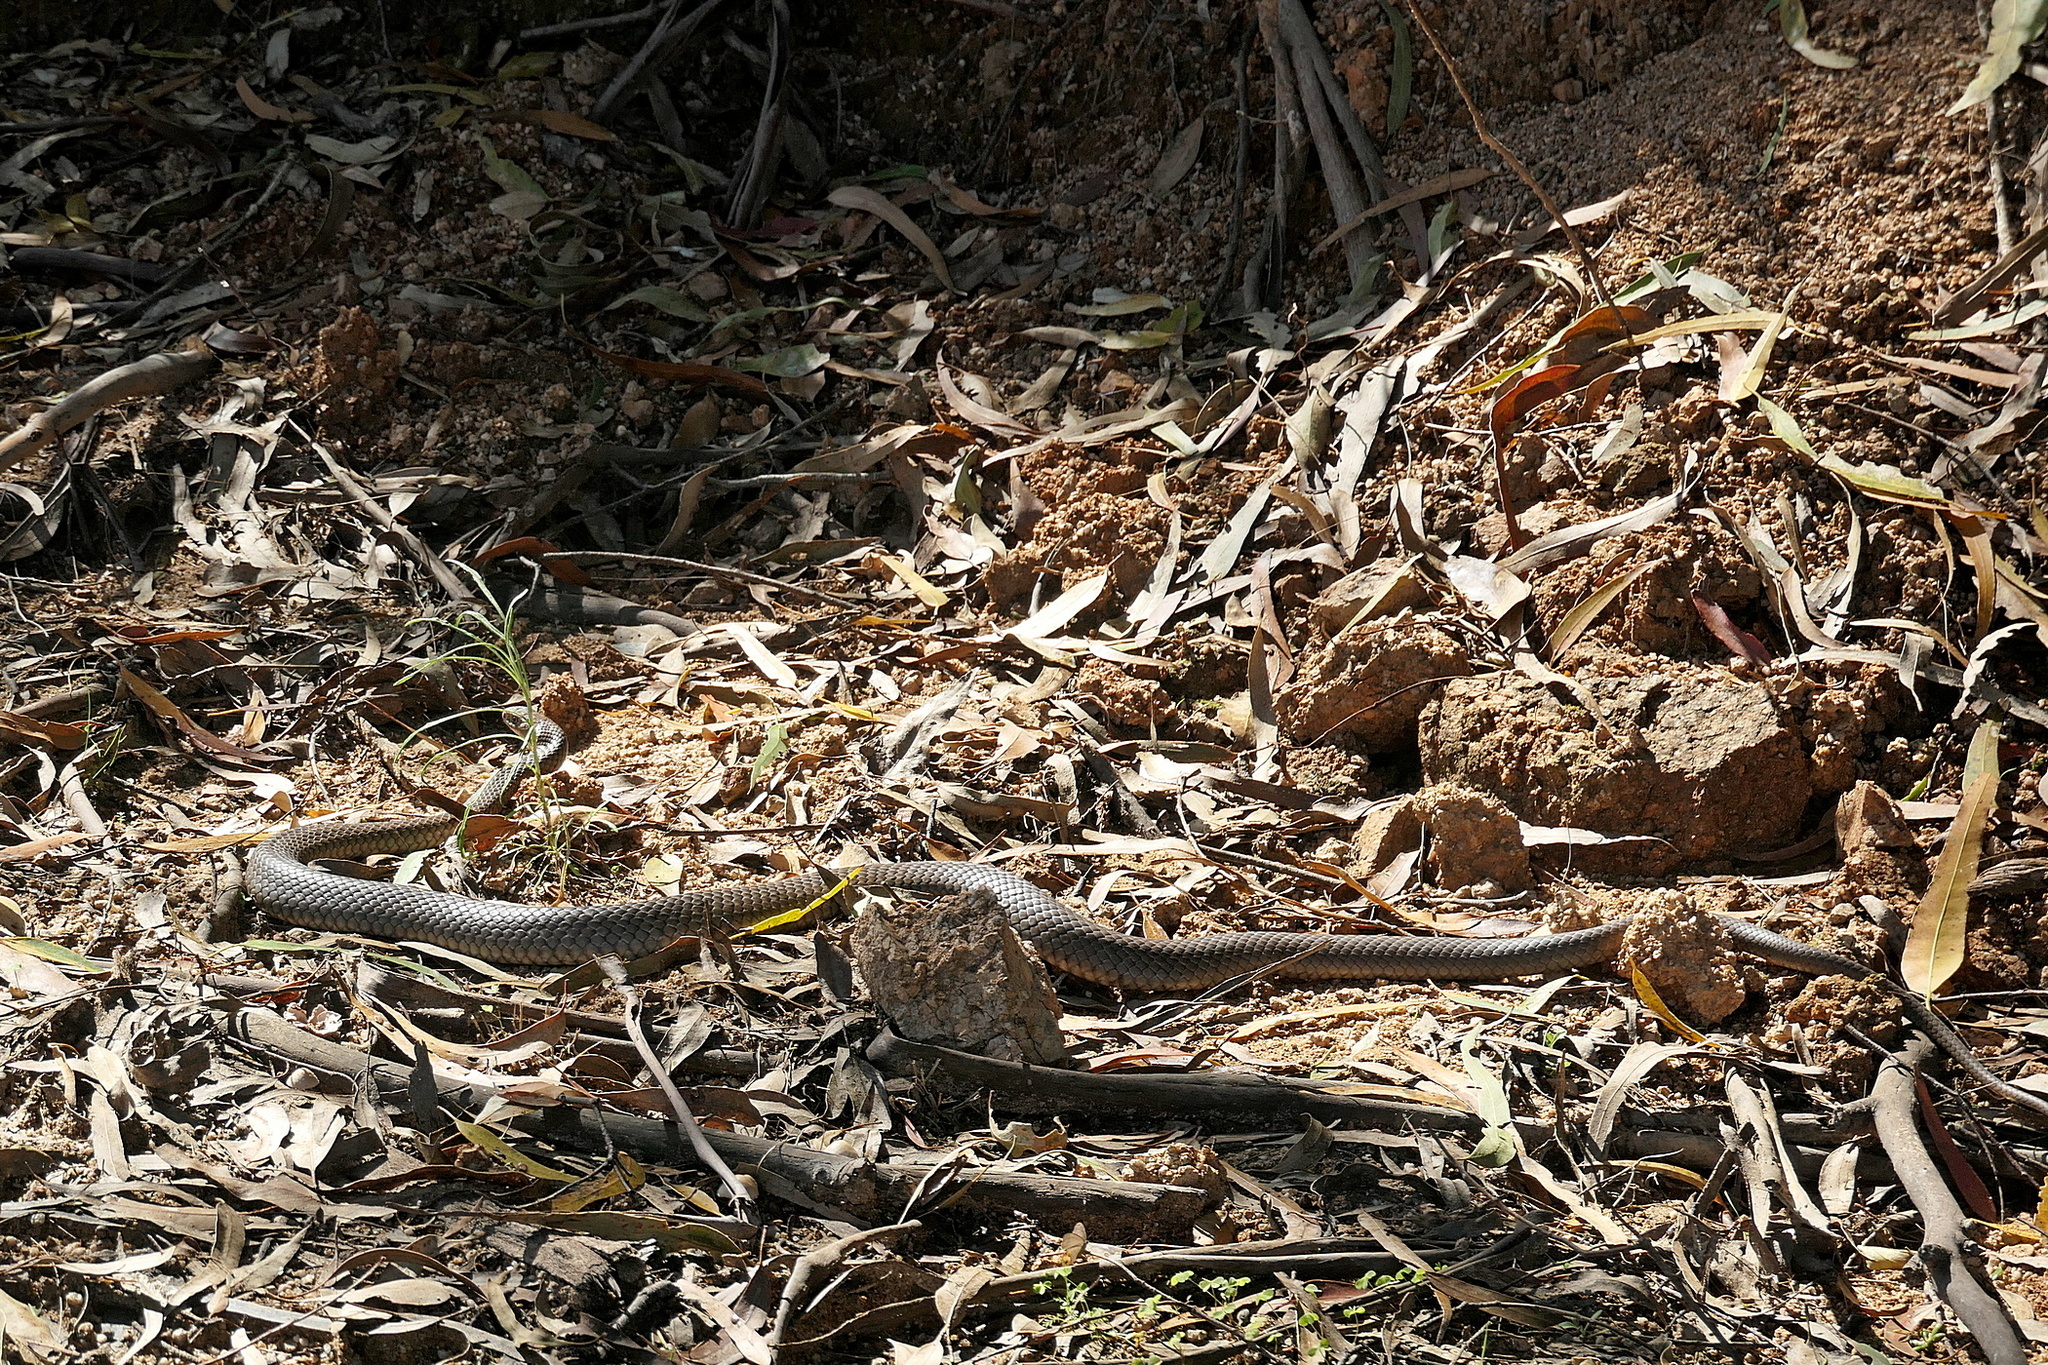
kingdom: Animalia
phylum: Chordata
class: Squamata
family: Elapidae
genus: Pseudonaja
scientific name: Pseudonaja textilis
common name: Eastern brown snake
